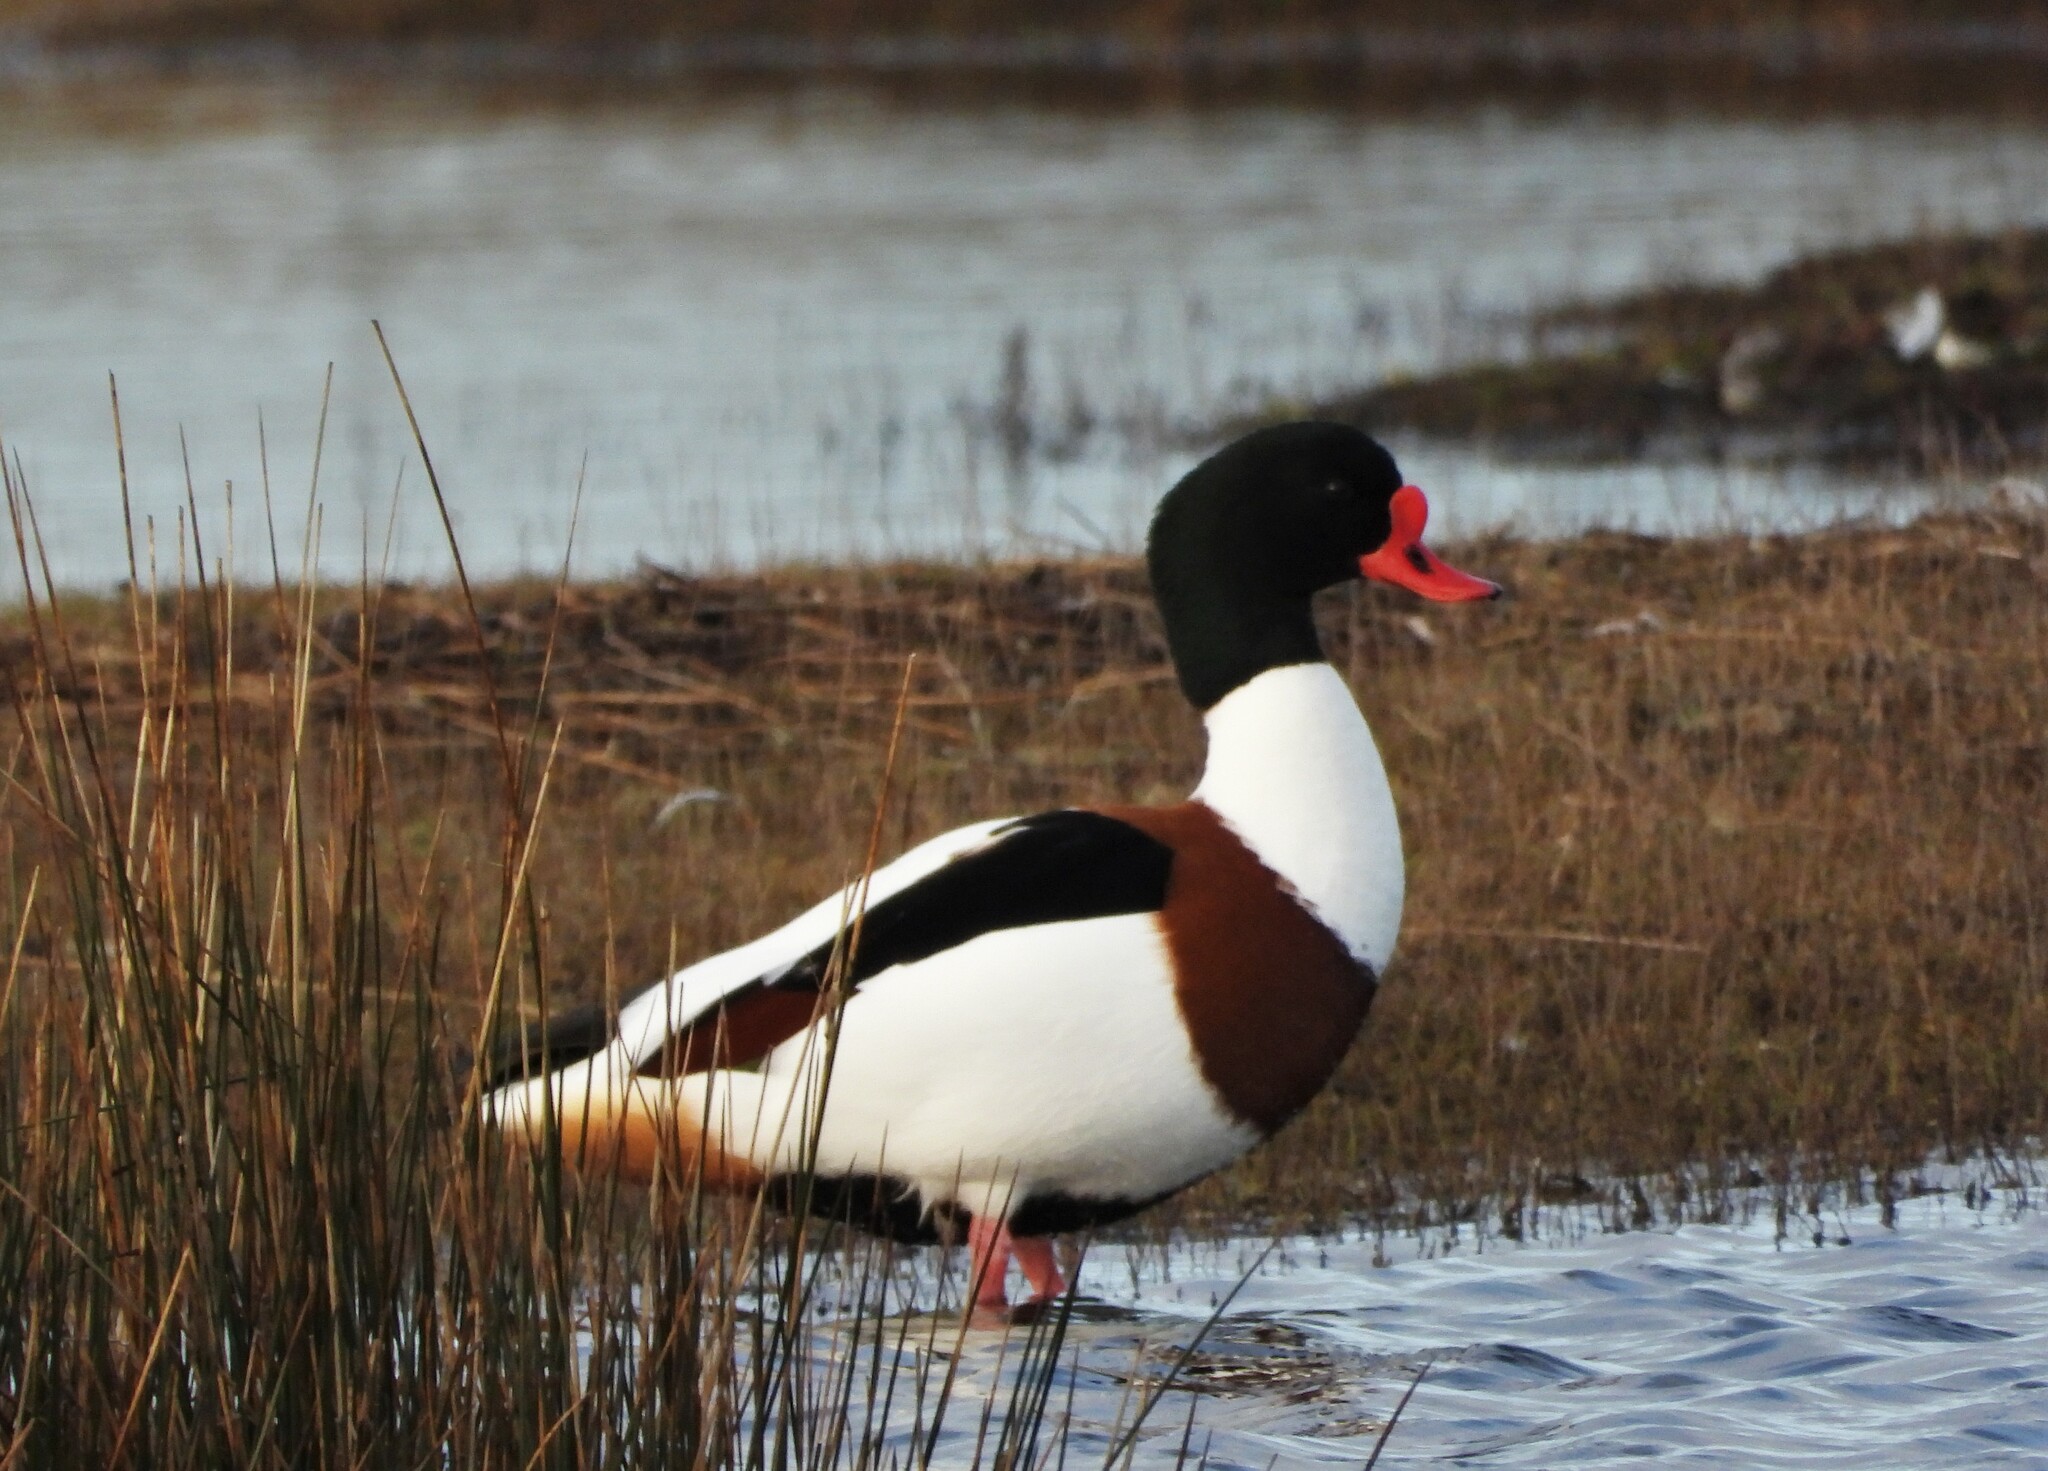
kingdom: Animalia
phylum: Chordata
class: Aves
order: Anseriformes
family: Anatidae
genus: Tadorna
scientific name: Tadorna tadorna
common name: Common shelduck
